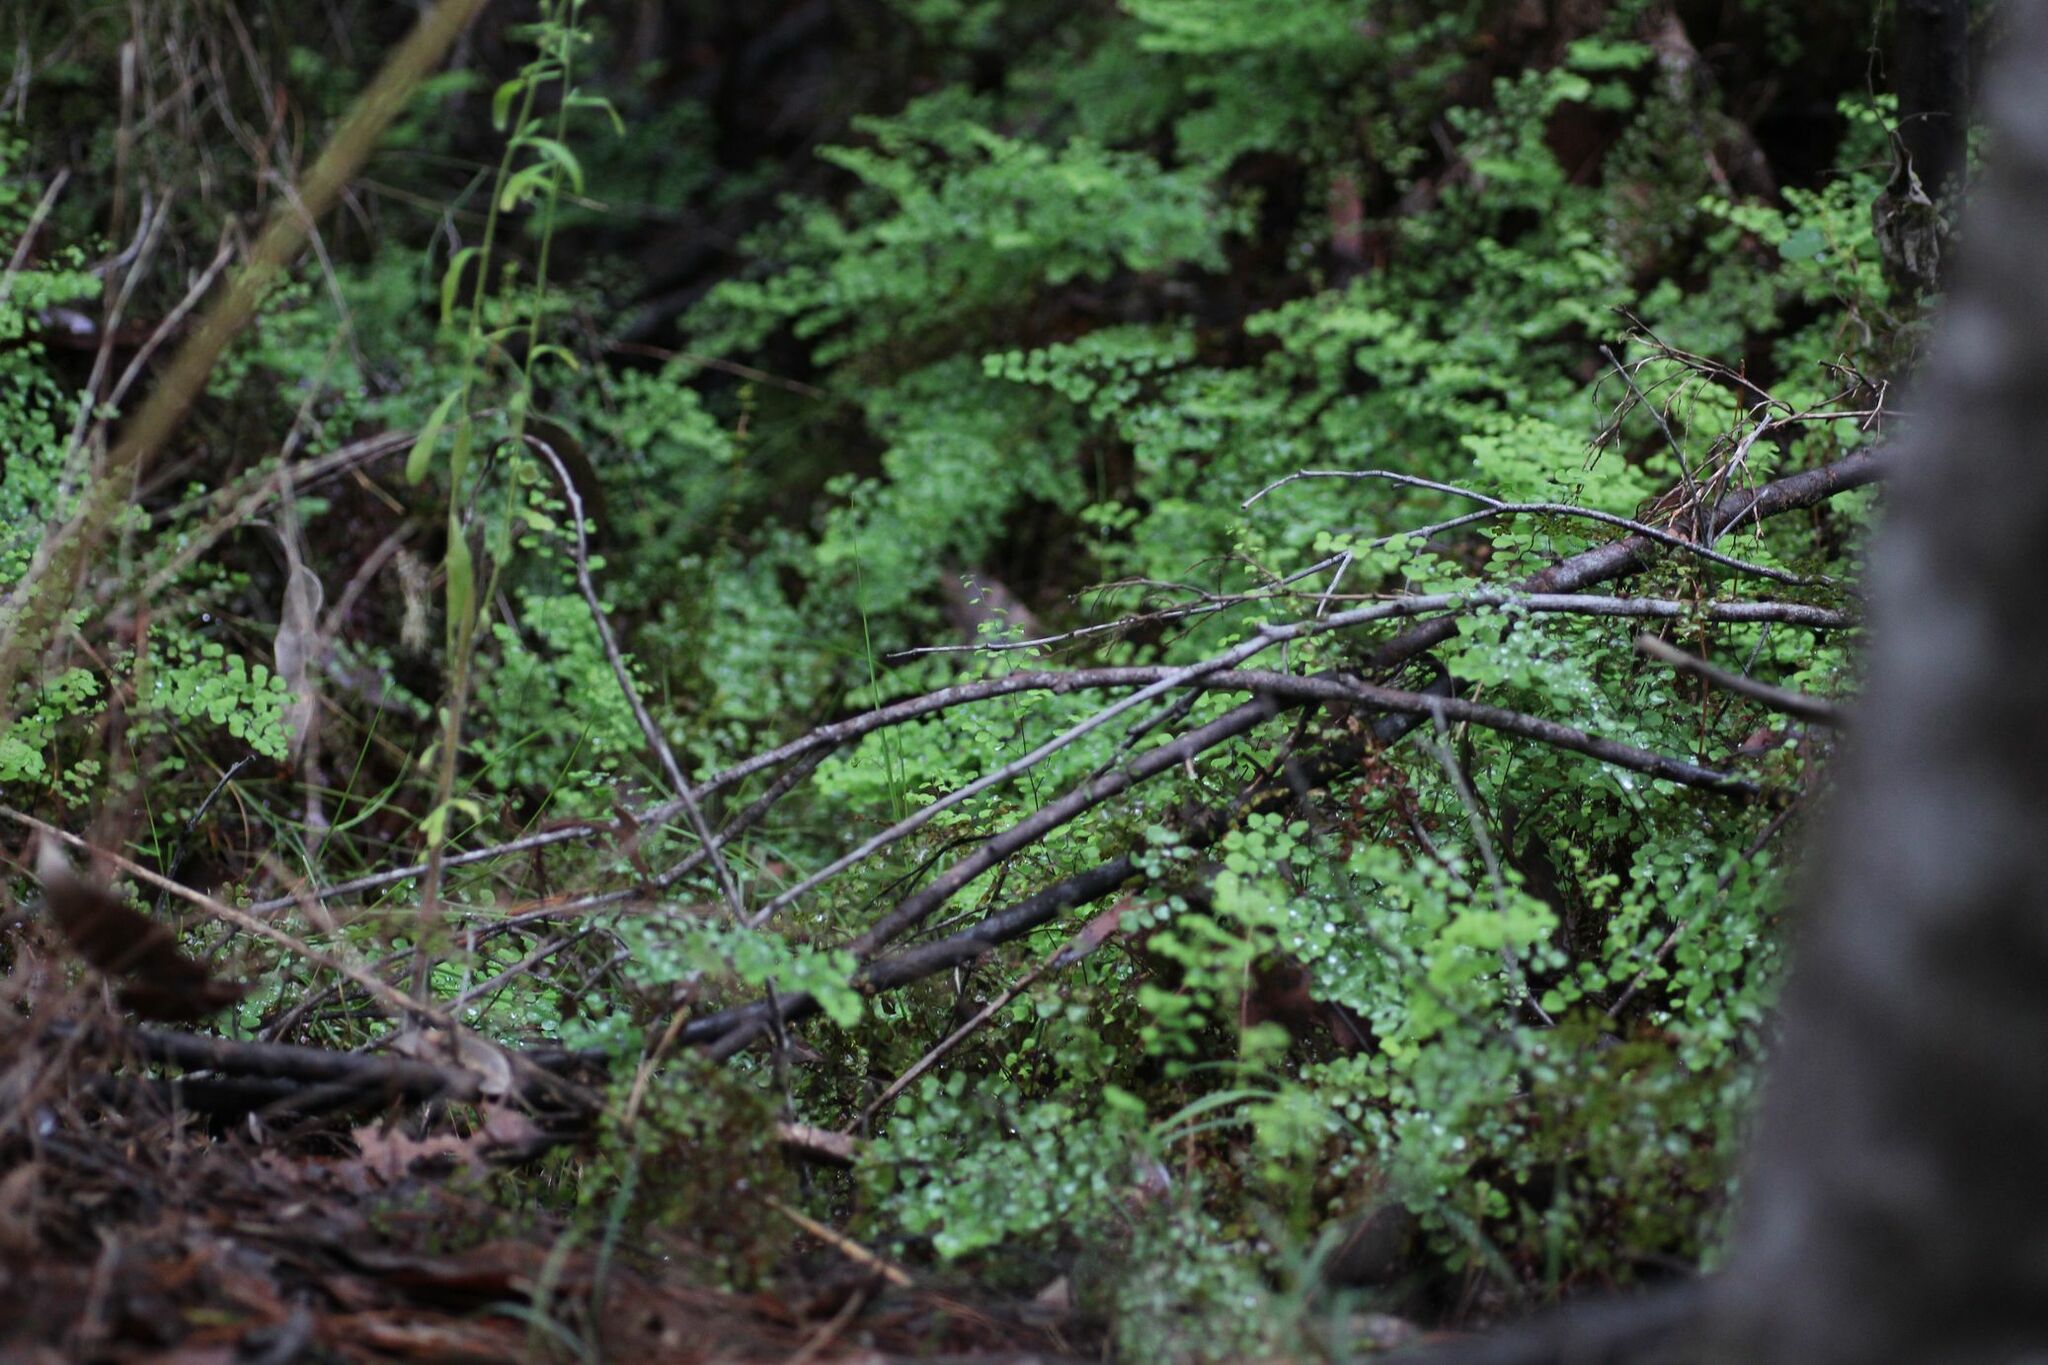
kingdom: Plantae
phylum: Tracheophyta
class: Polypodiopsida
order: Polypodiales
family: Pteridaceae
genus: Adiantum
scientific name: Adiantum aethiopicum
